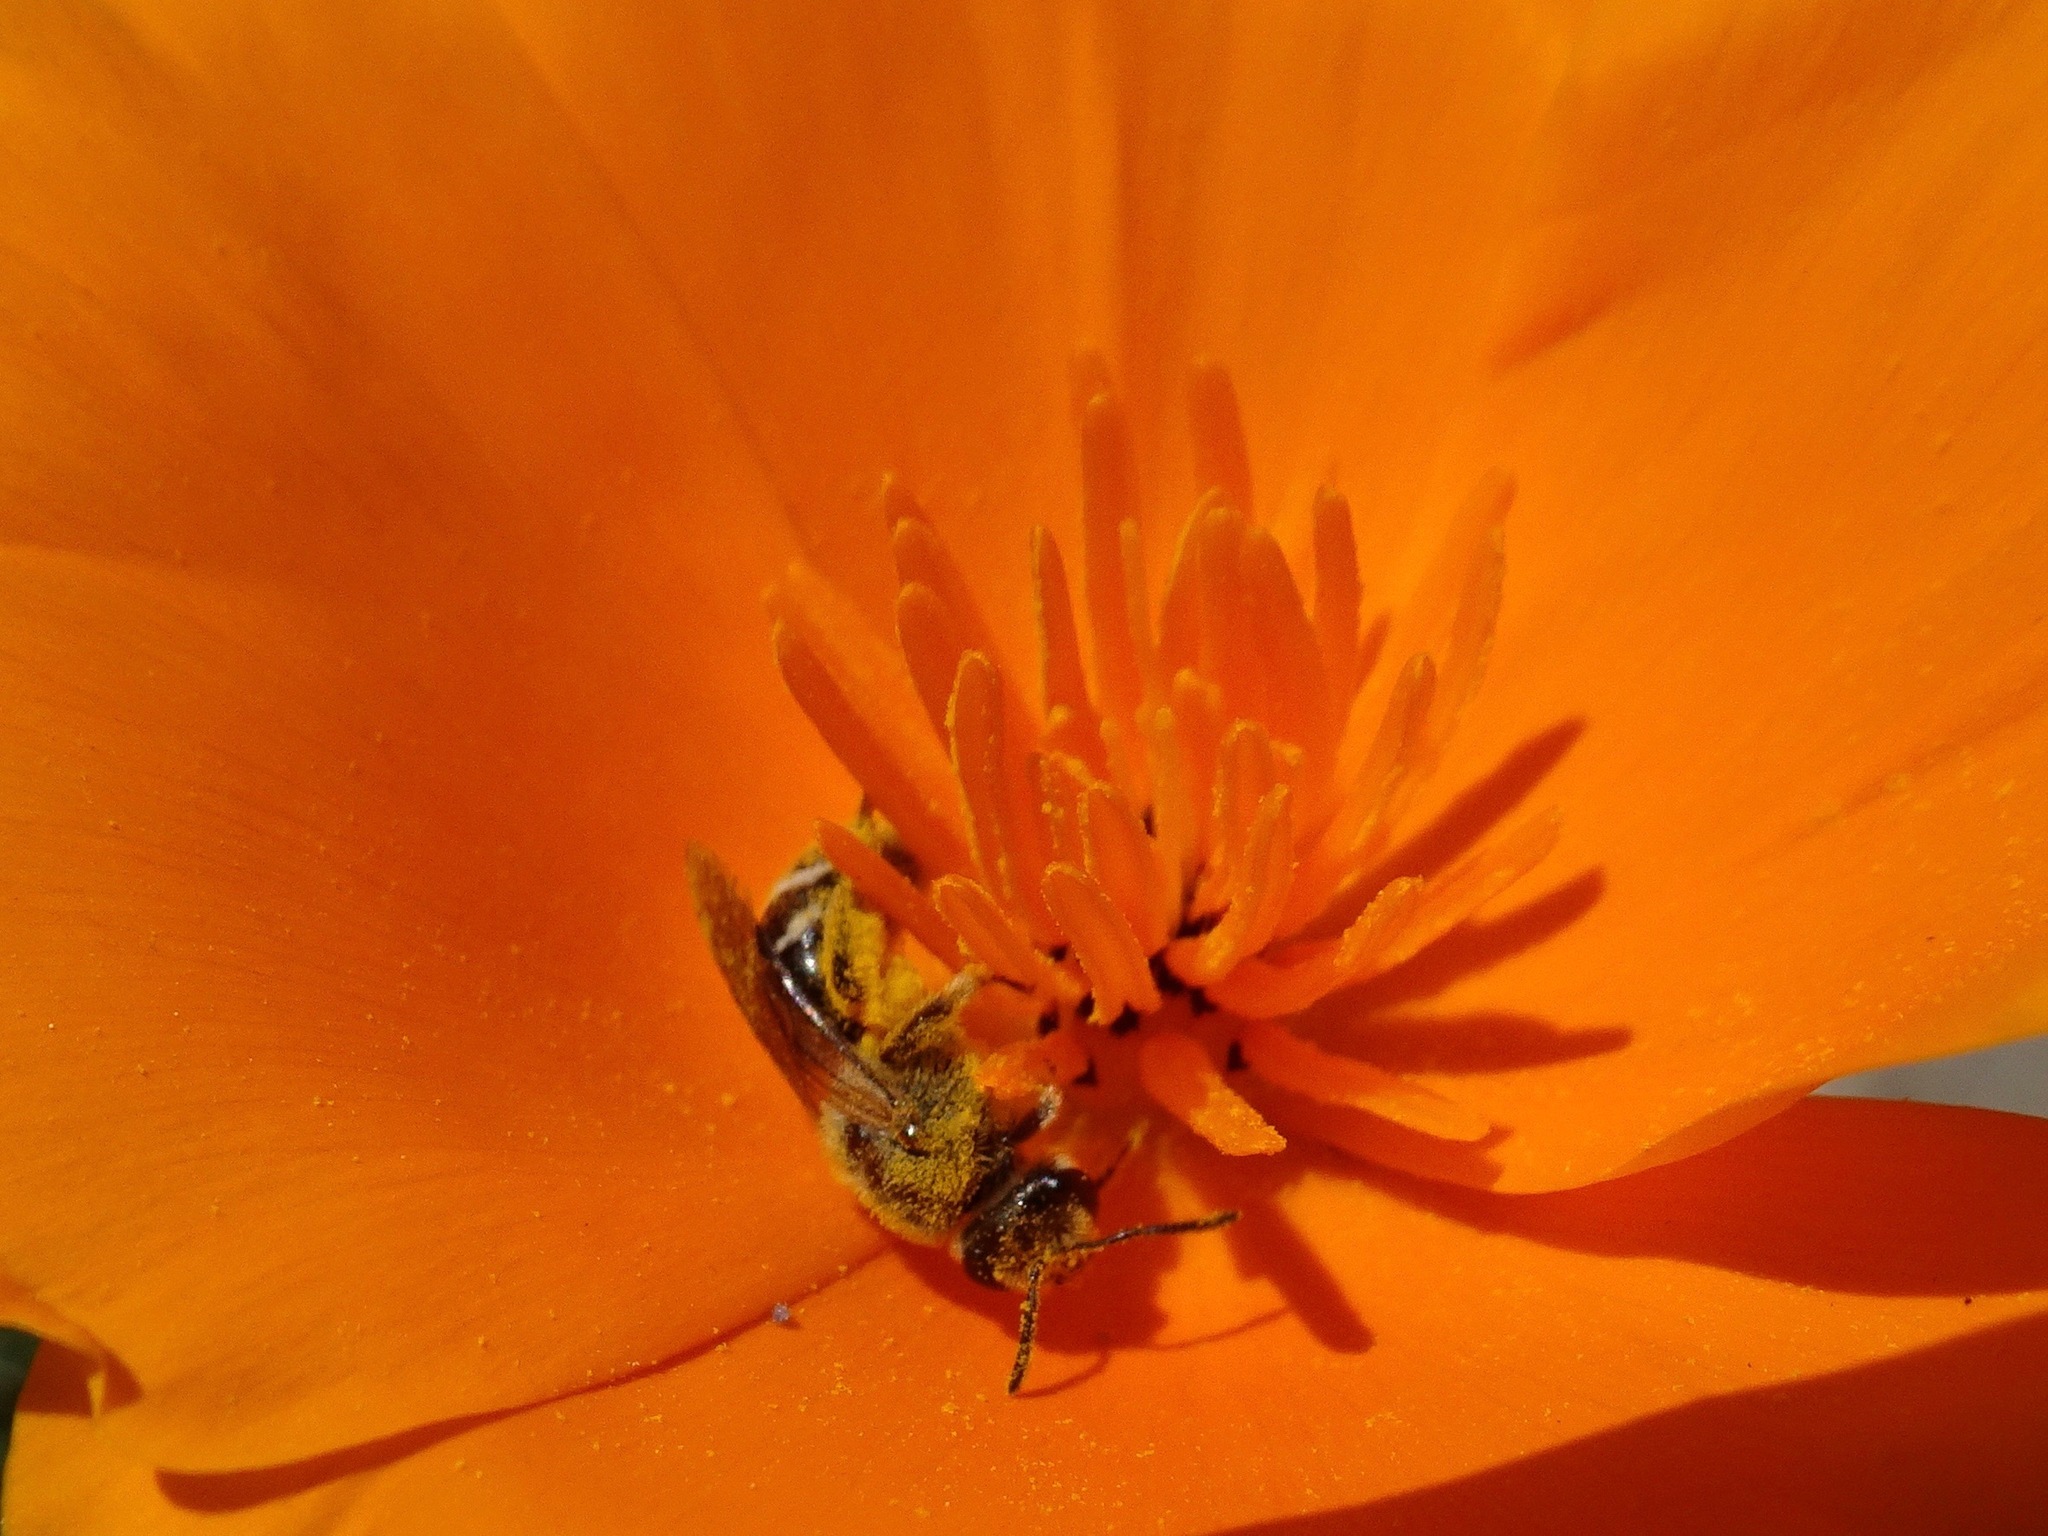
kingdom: Animalia
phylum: Arthropoda
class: Insecta
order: Hymenoptera
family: Halictidae
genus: Lasioglossum
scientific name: Lasioglossum sisymbrii
